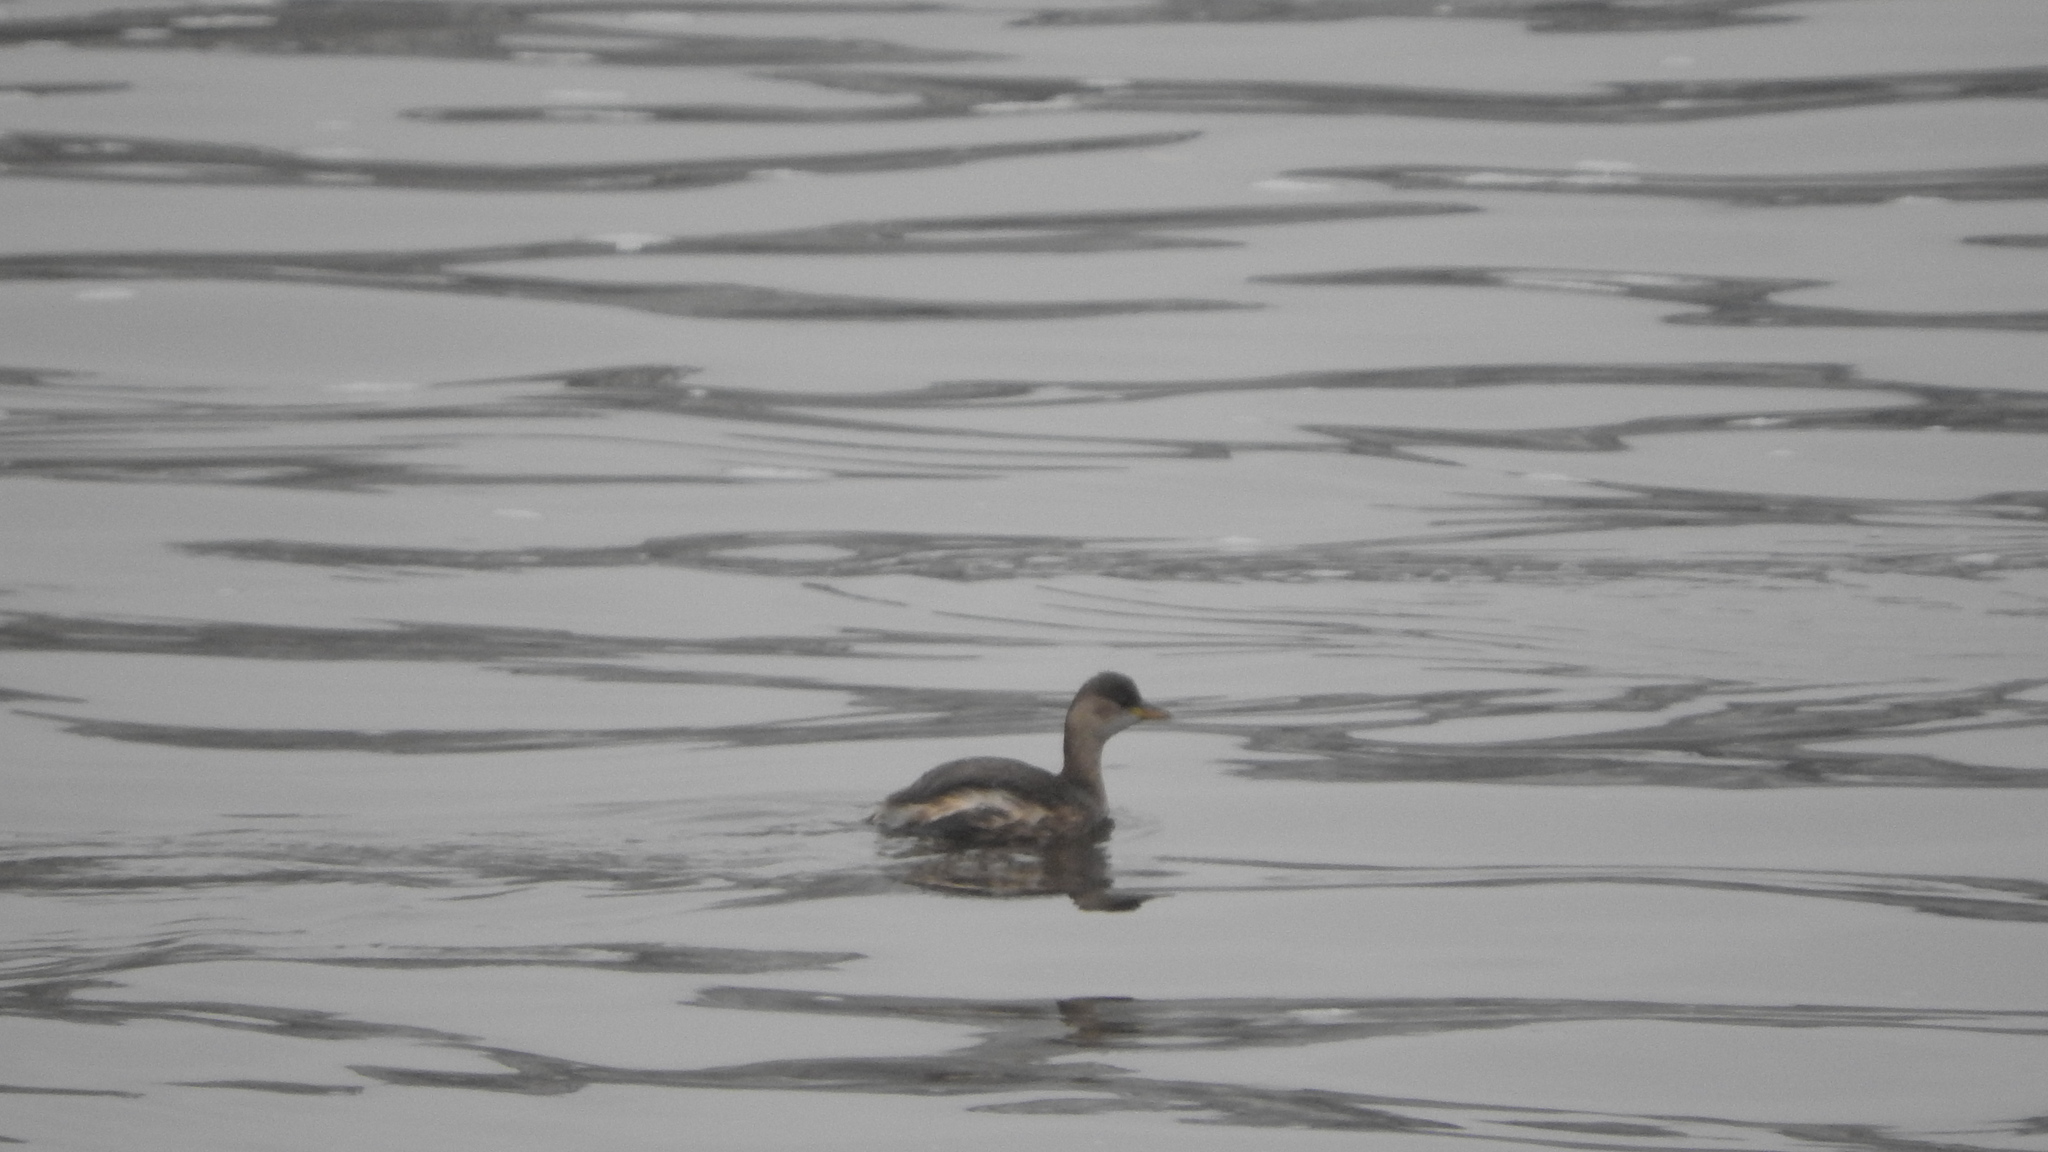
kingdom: Animalia
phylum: Chordata
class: Aves
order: Podicipediformes
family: Podicipedidae
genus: Tachybaptus
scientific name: Tachybaptus ruficollis
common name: Little grebe
